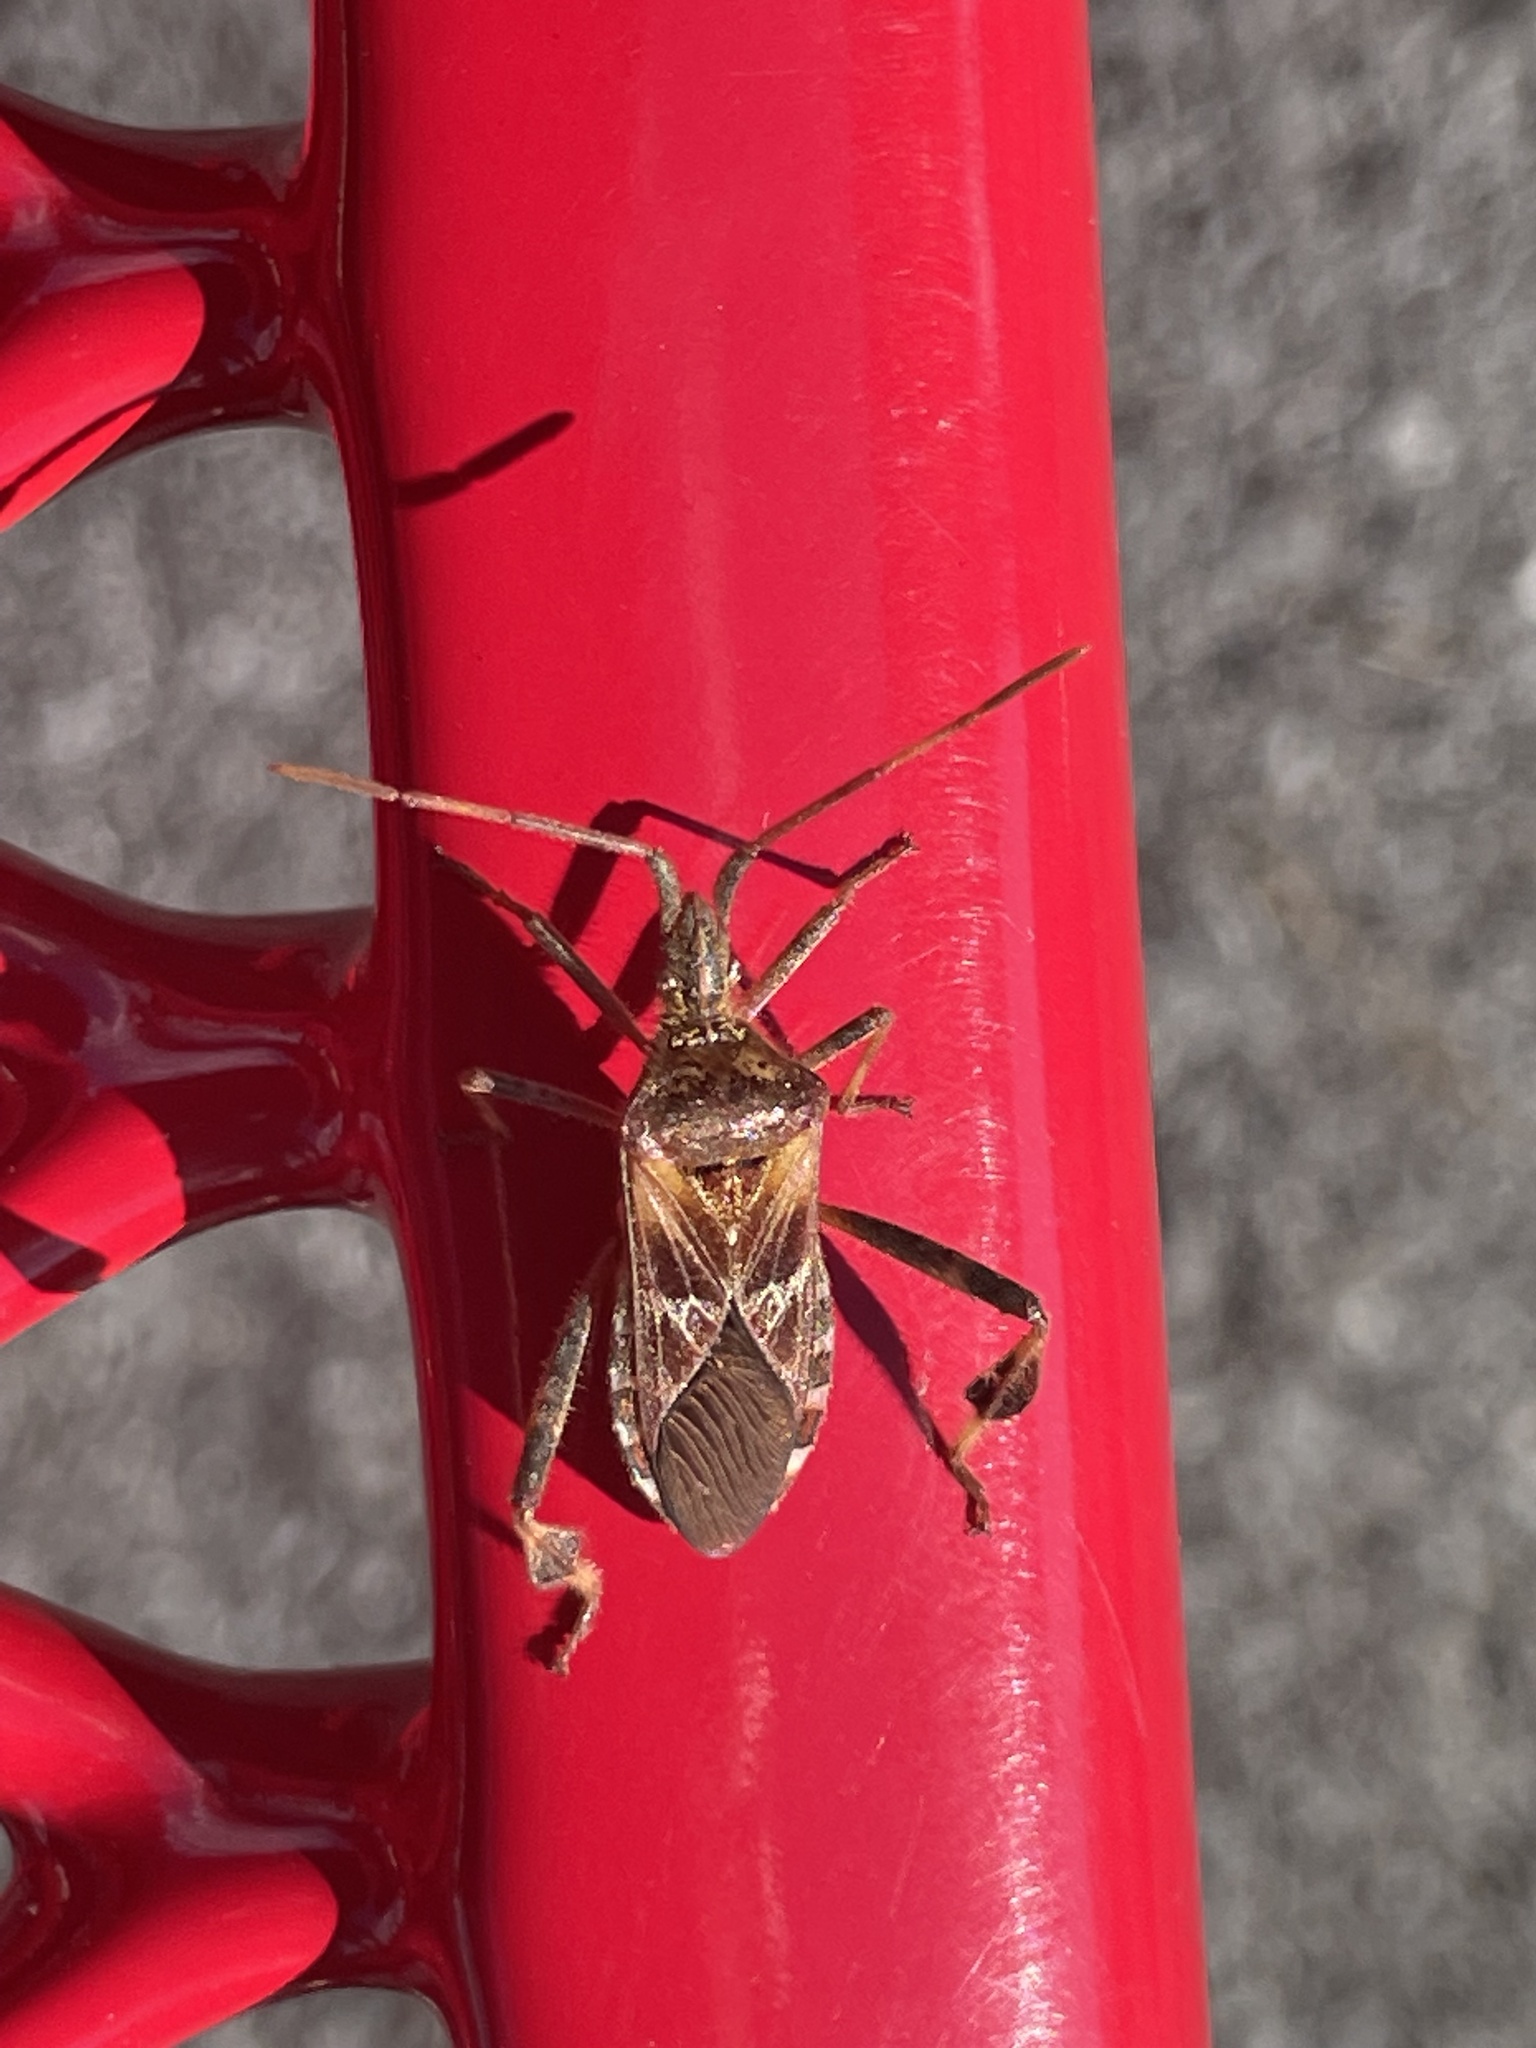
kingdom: Animalia
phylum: Arthropoda
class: Insecta
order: Hemiptera
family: Coreidae
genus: Leptoglossus
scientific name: Leptoglossus occidentalis
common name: Western conifer-seed bug
